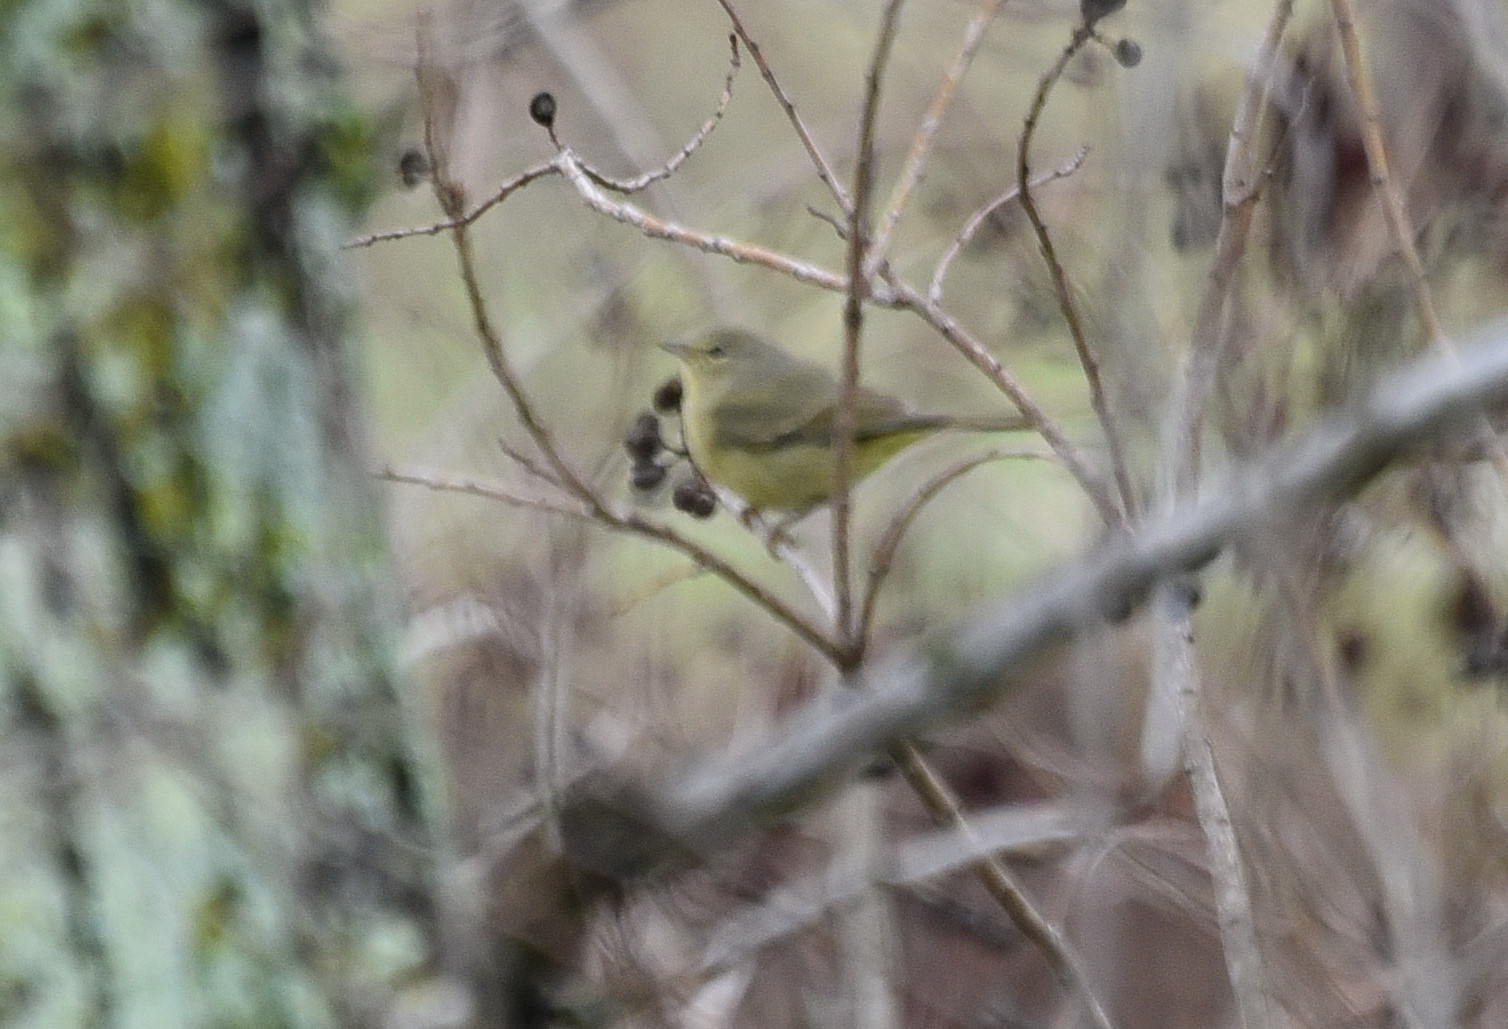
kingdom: Animalia
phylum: Chordata
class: Aves
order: Passeriformes
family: Parulidae
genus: Leiothlypis
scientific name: Leiothlypis celata
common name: Orange-crowned warbler
